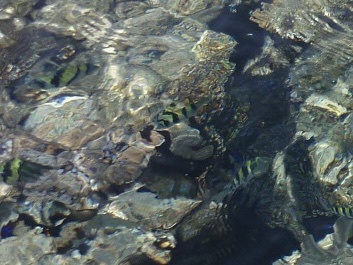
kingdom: Animalia
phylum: Chordata
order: Perciformes
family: Pomacentridae
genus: Abudefduf
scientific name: Abudefduf vaigiensis
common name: Indo-pacific sergeant
